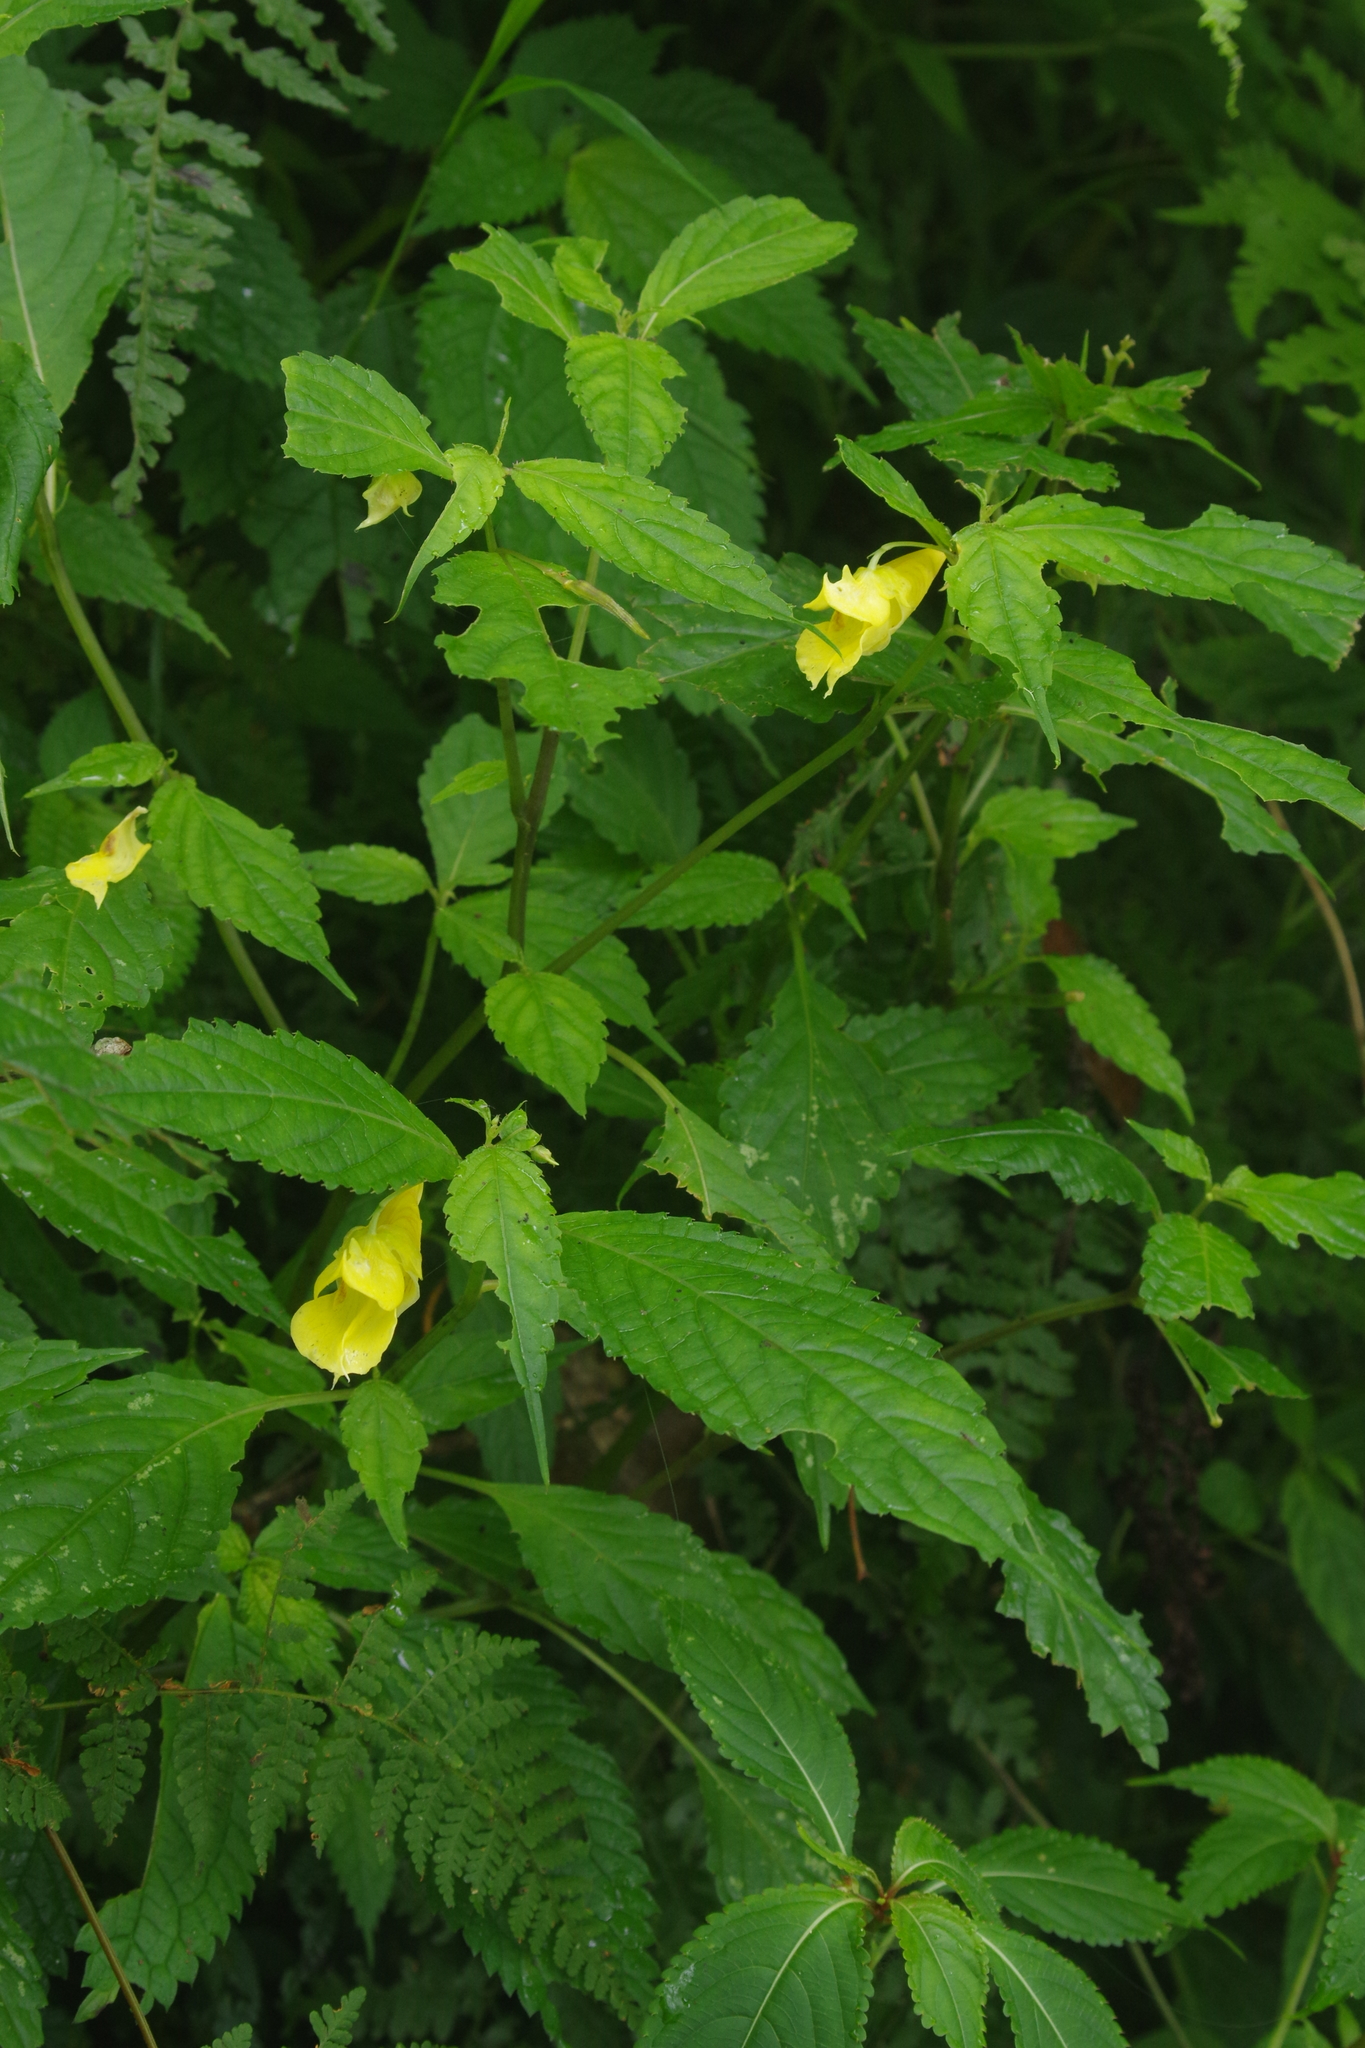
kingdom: Plantae
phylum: Tracheophyta
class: Magnoliopsida
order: Ericales
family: Balsaminaceae
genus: Impatiens
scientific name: Impatiens tayemonii
